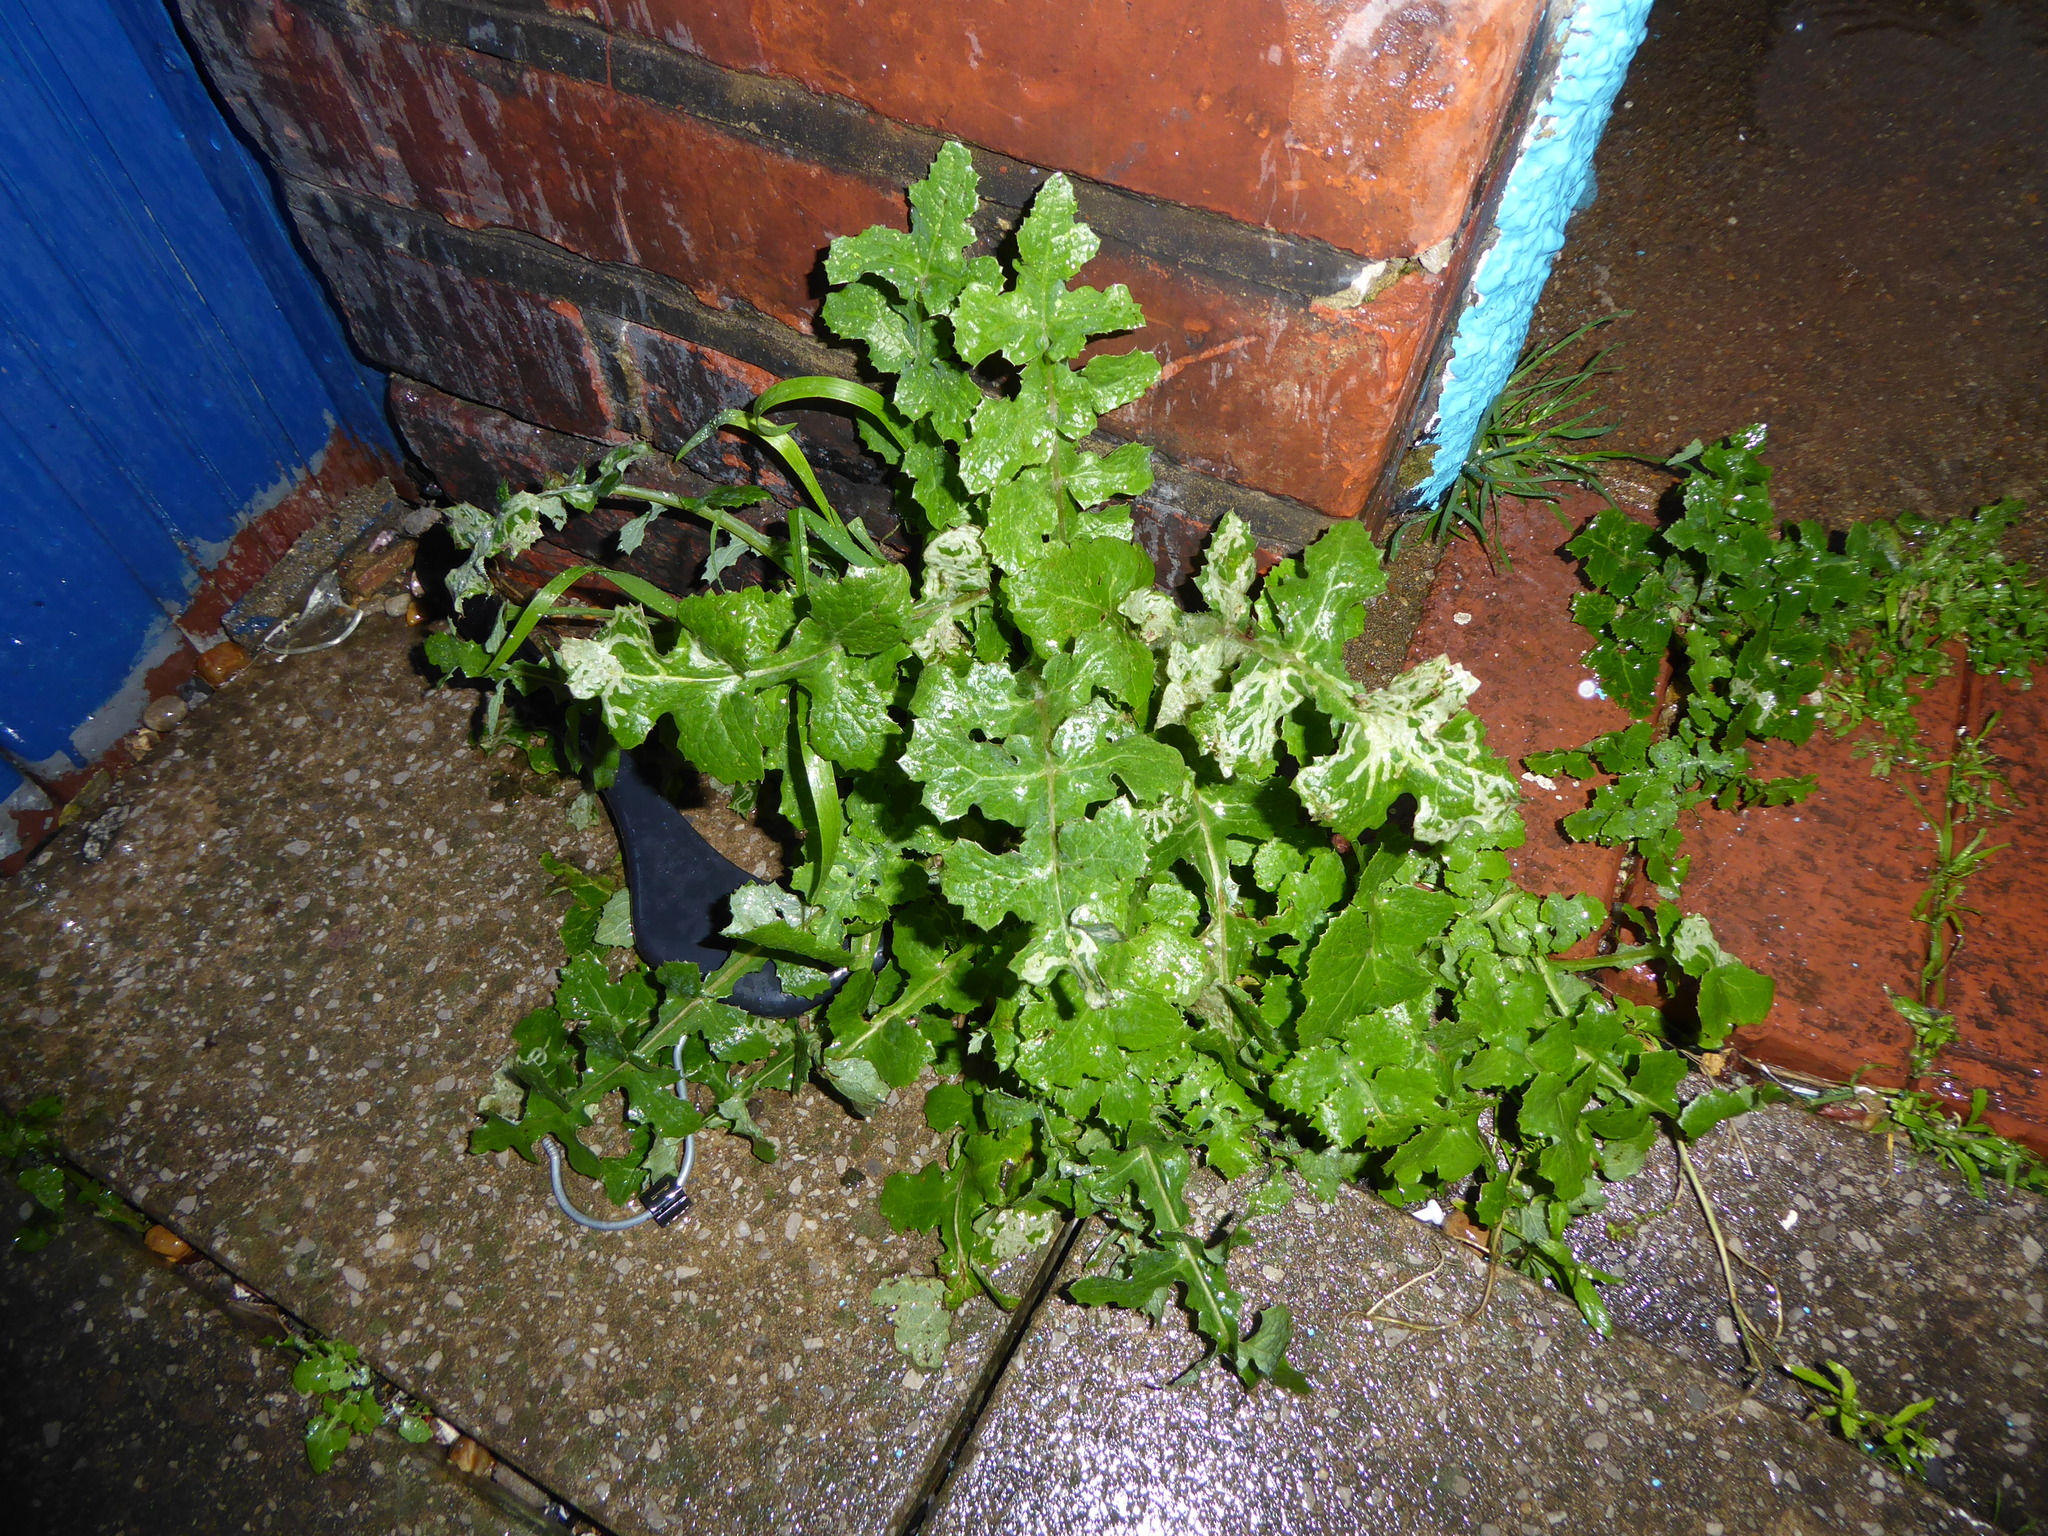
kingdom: Plantae
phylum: Tracheophyta
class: Magnoliopsida
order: Asterales
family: Asteraceae
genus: Sonchus
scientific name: Sonchus oleraceus
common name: Common sowthistle
